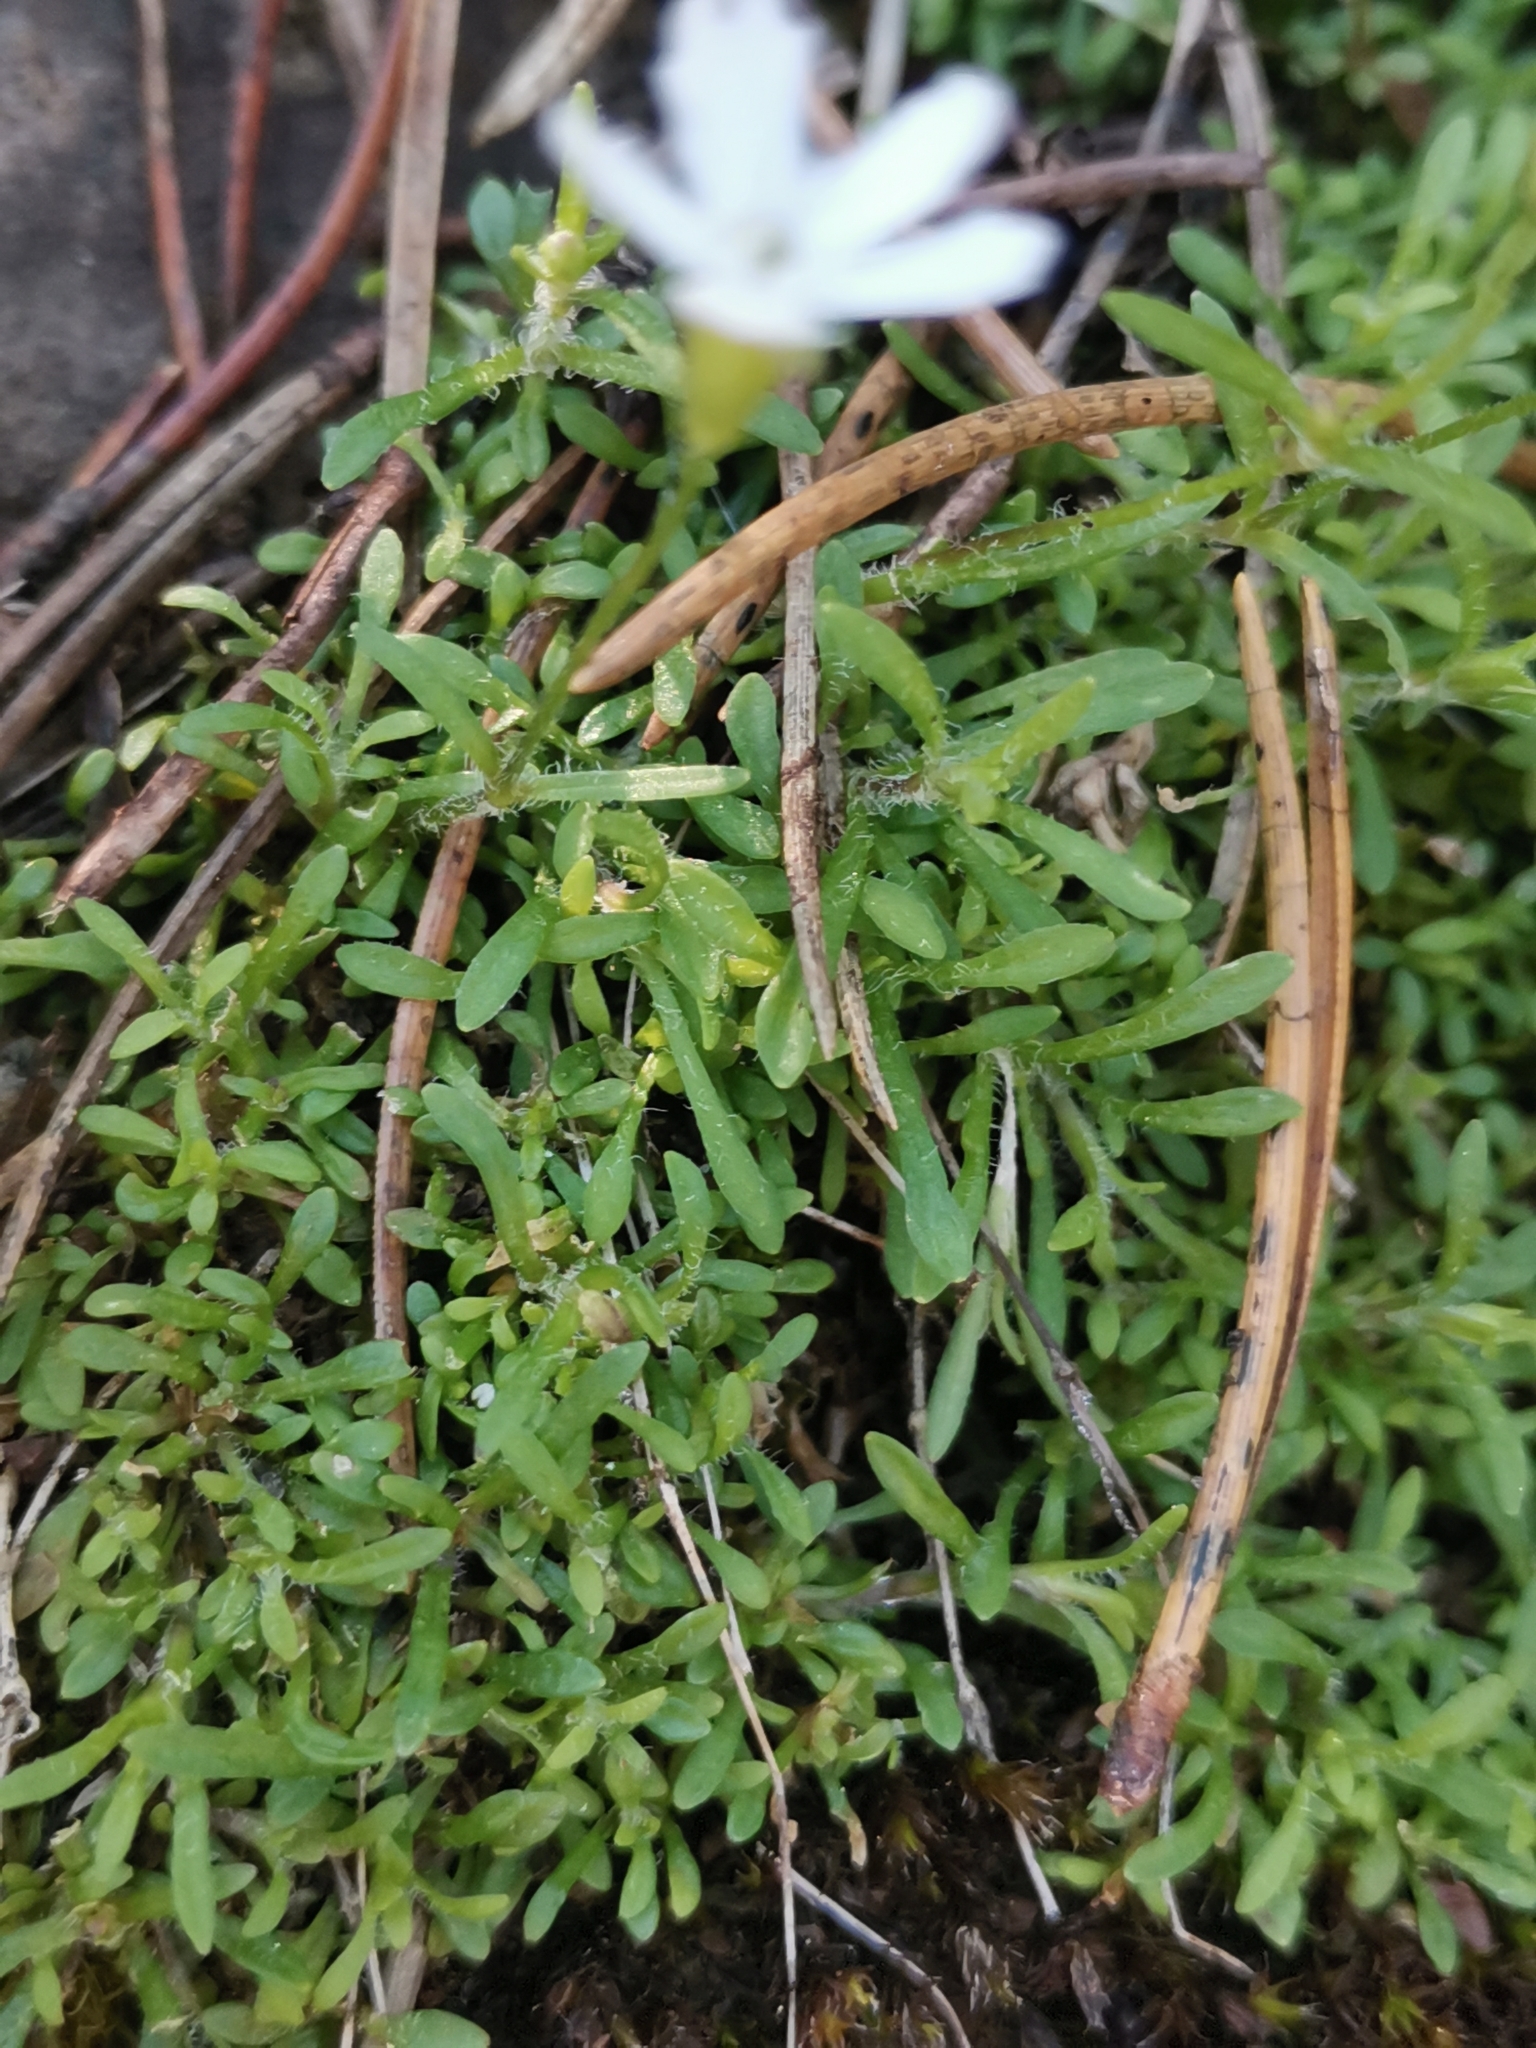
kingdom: Plantae
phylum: Tracheophyta
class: Magnoliopsida
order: Caryophyllales
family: Caryophyllaceae
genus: Heliosperma
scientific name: Heliosperma pusillum
